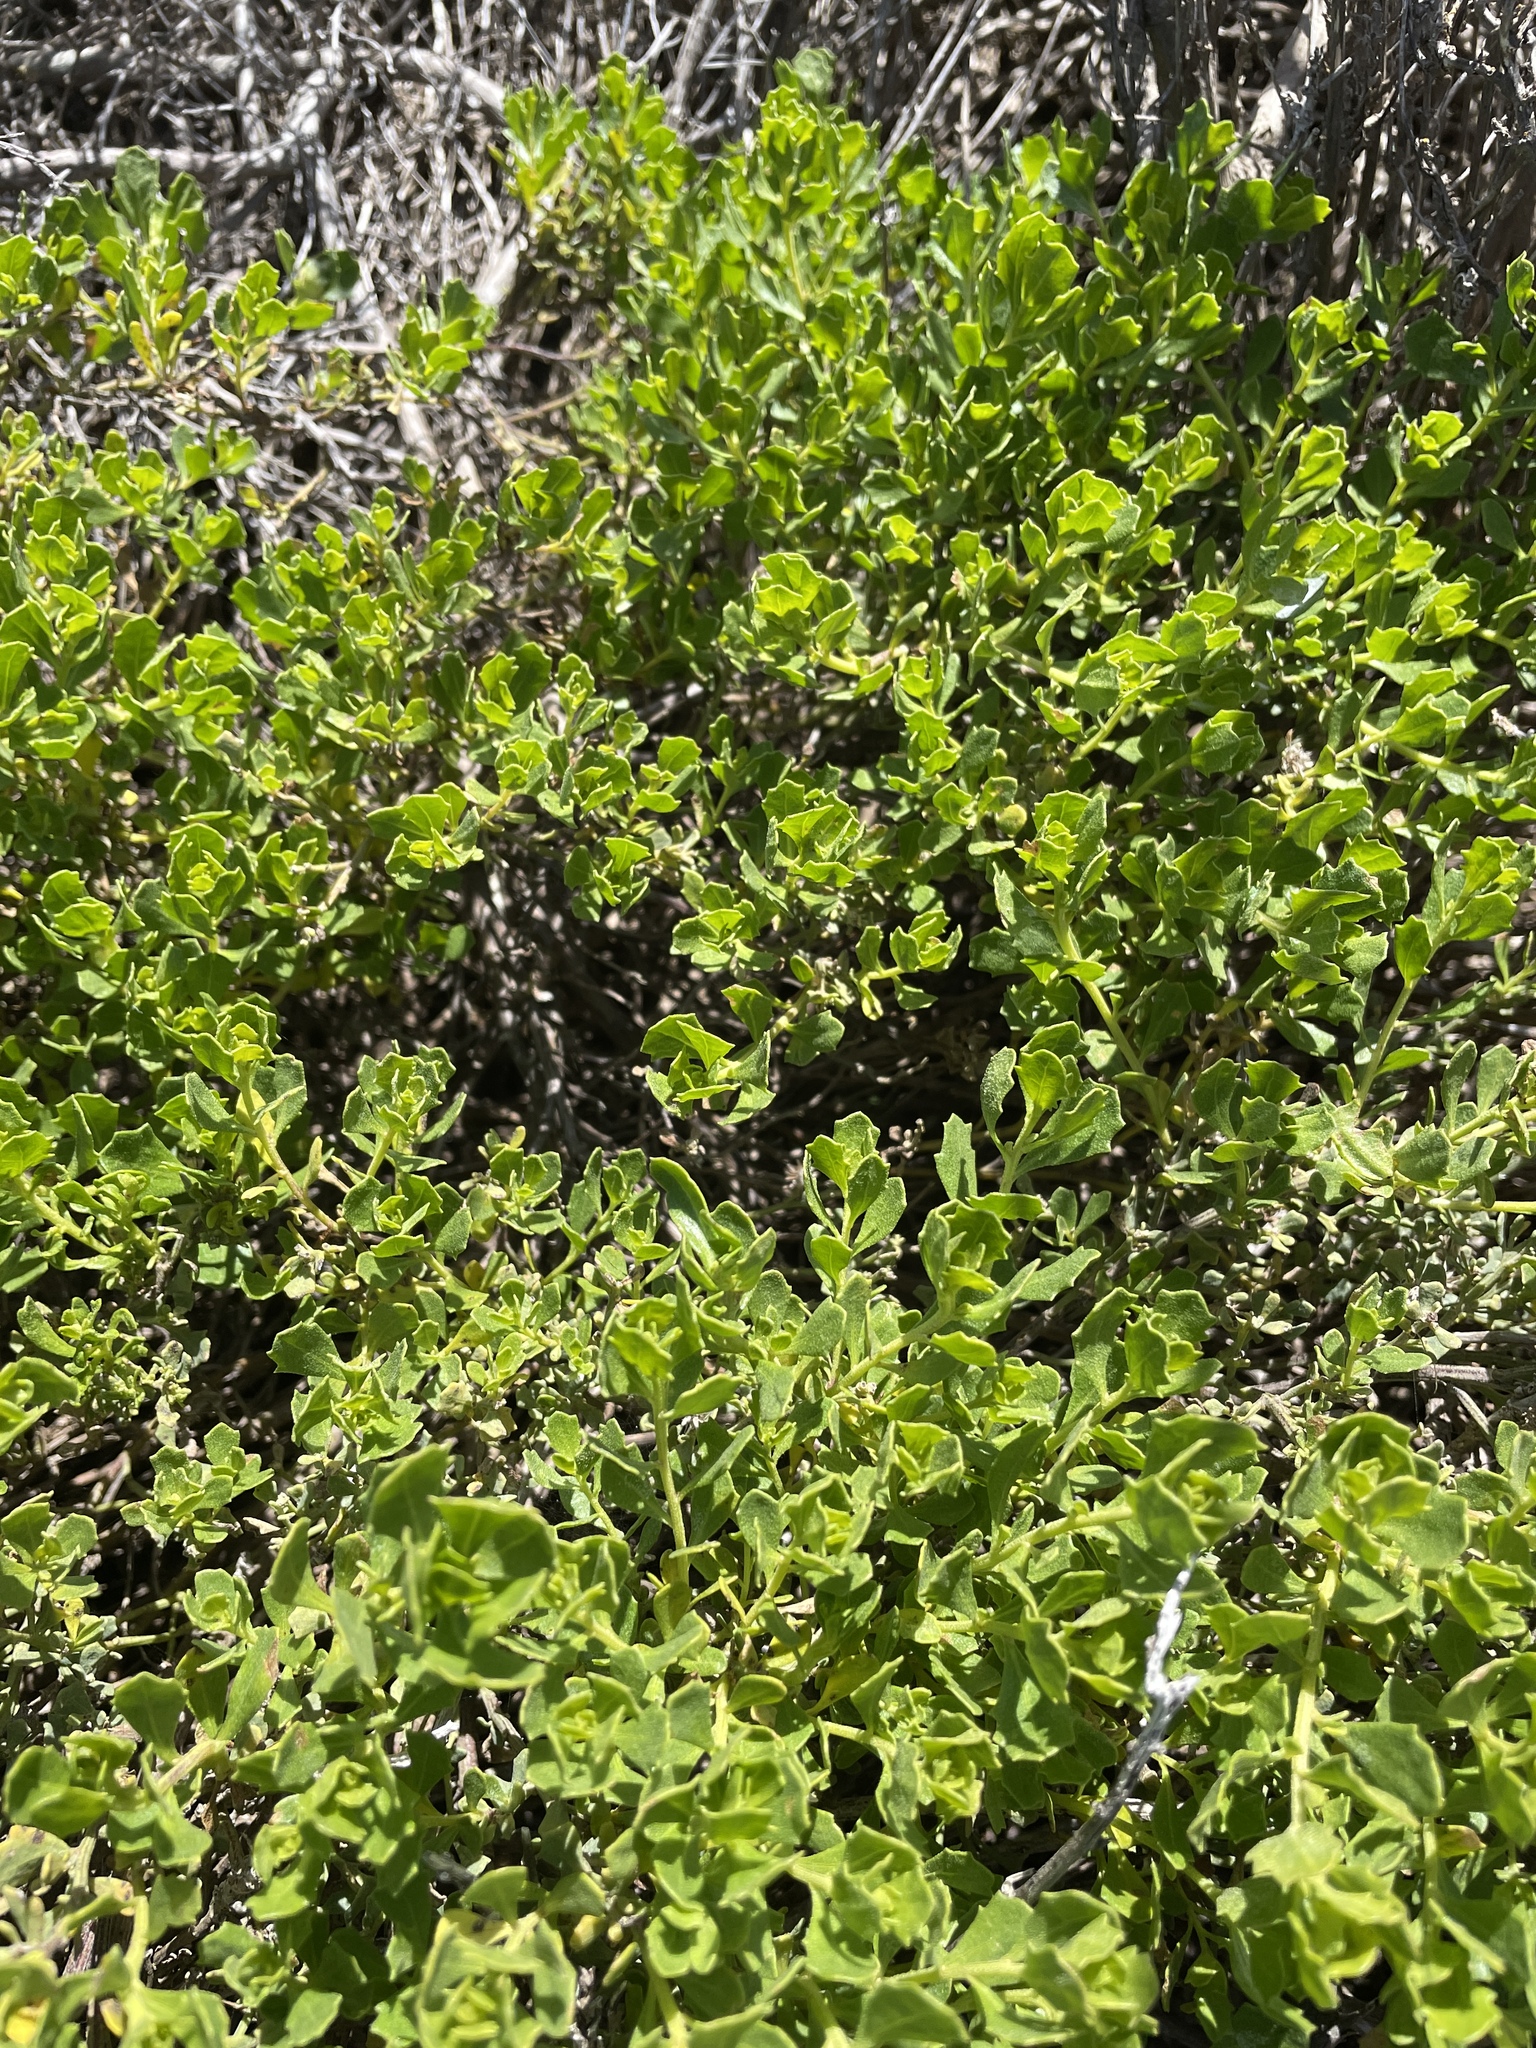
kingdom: Plantae
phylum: Tracheophyta
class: Magnoliopsida
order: Asterales
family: Asteraceae
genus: Baccharis
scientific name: Baccharis pilularis
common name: Coyotebrush
